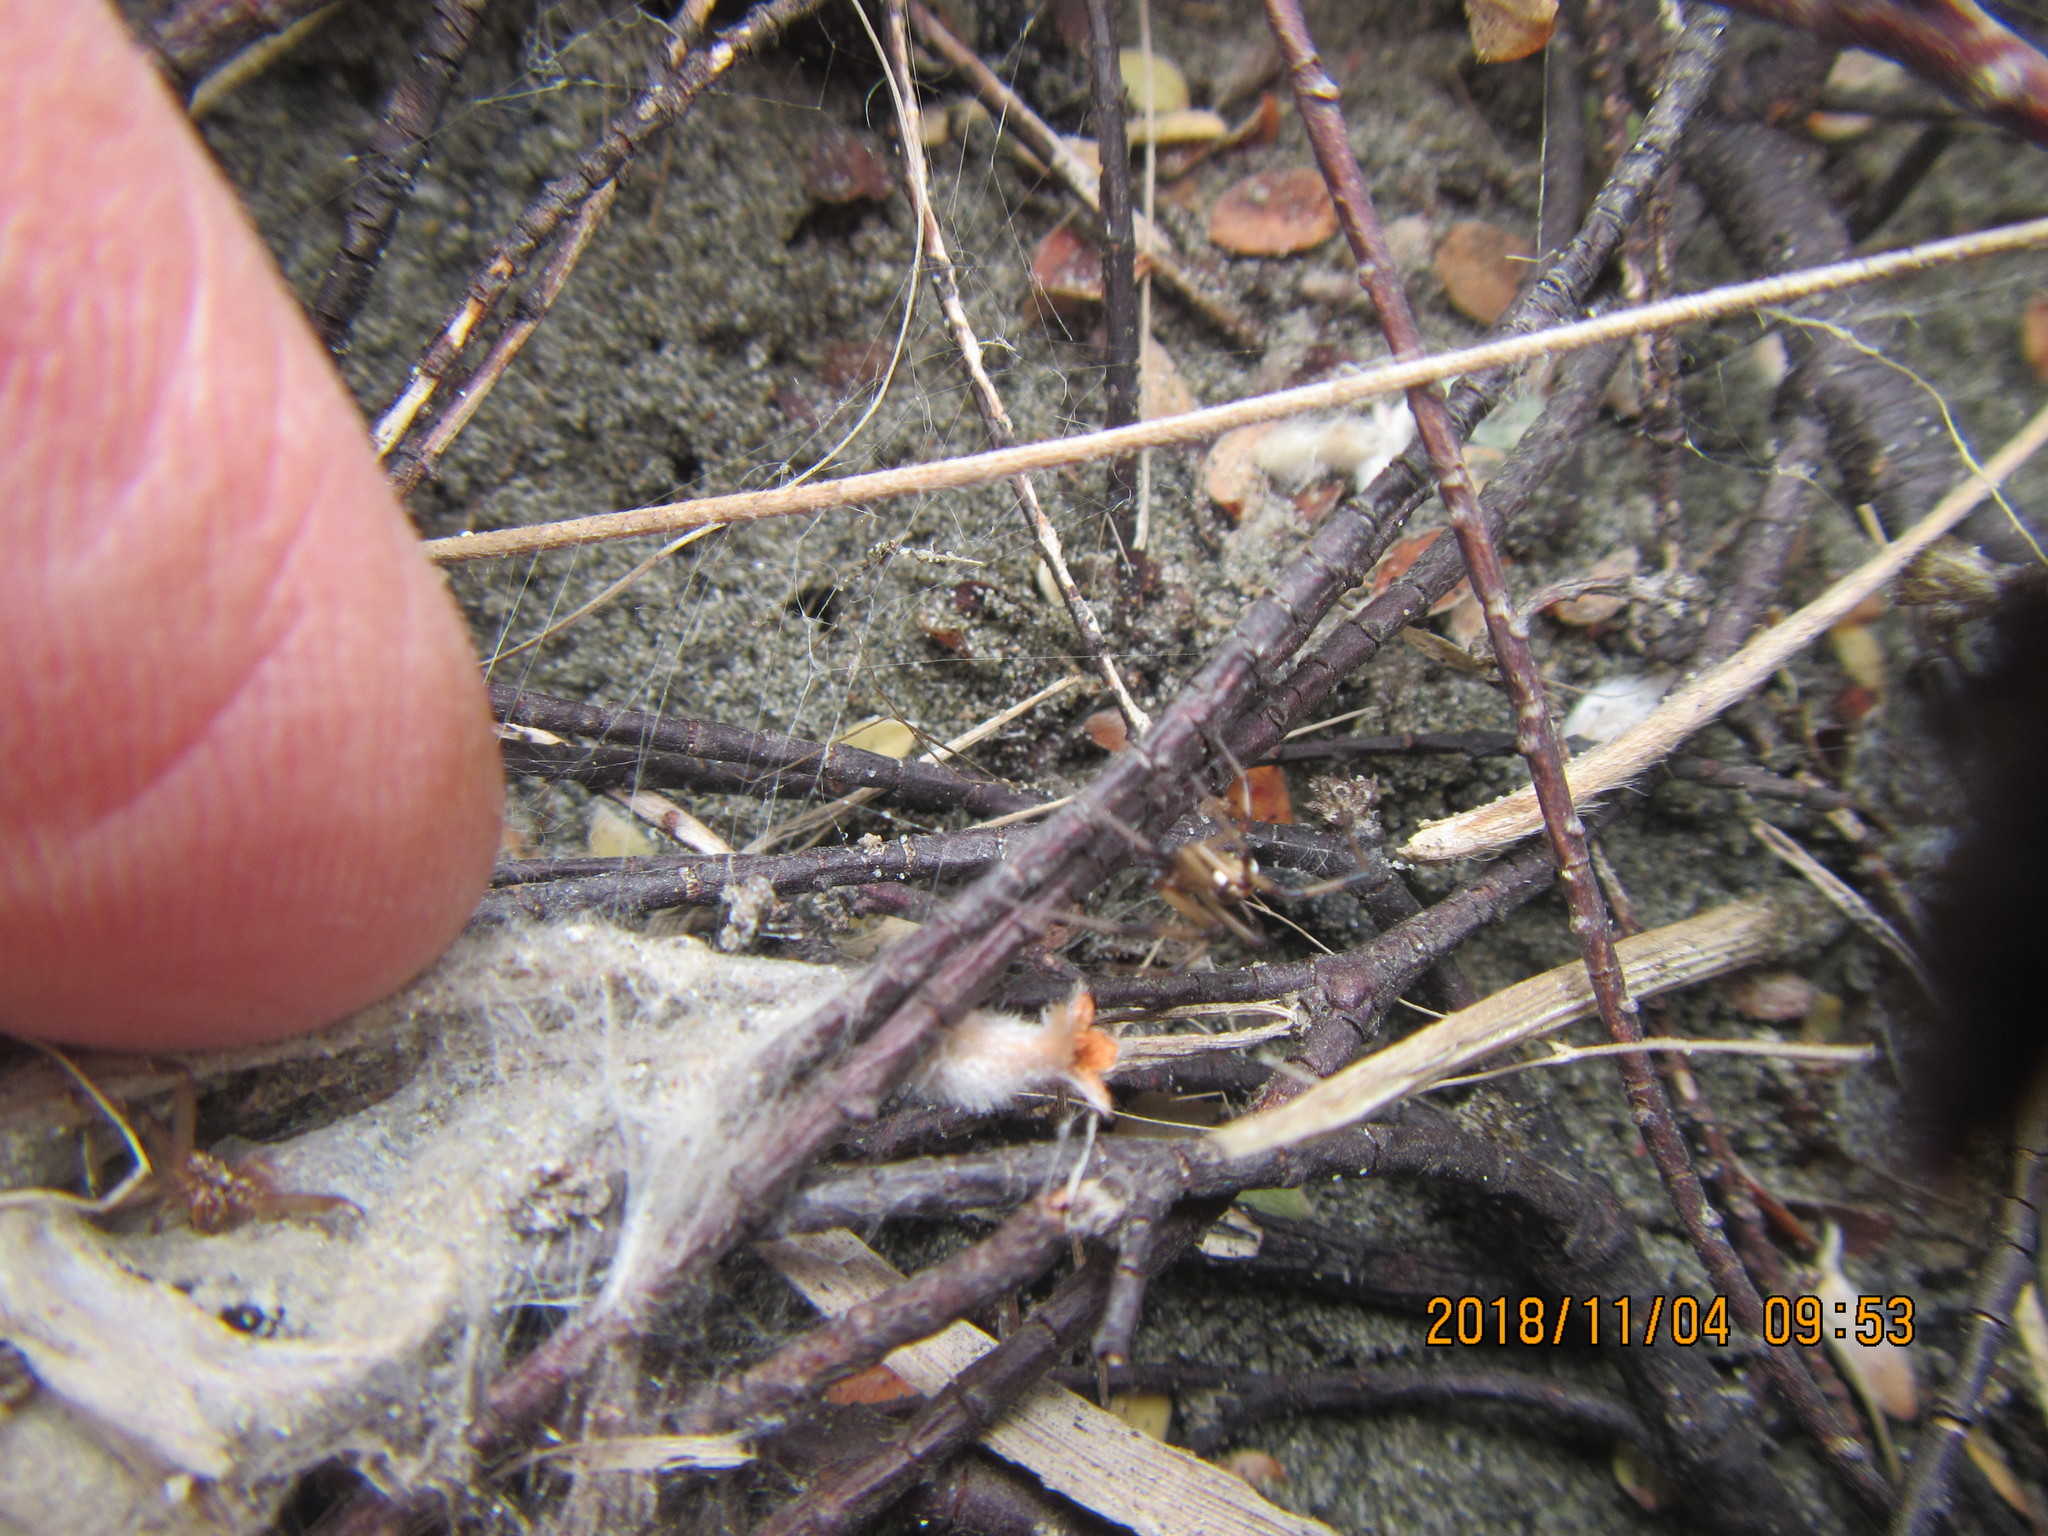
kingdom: Animalia
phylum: Arthropoda
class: Arachnida
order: Araneae
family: Theridiidae
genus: Latrodectus
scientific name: Latrodectus katipo
